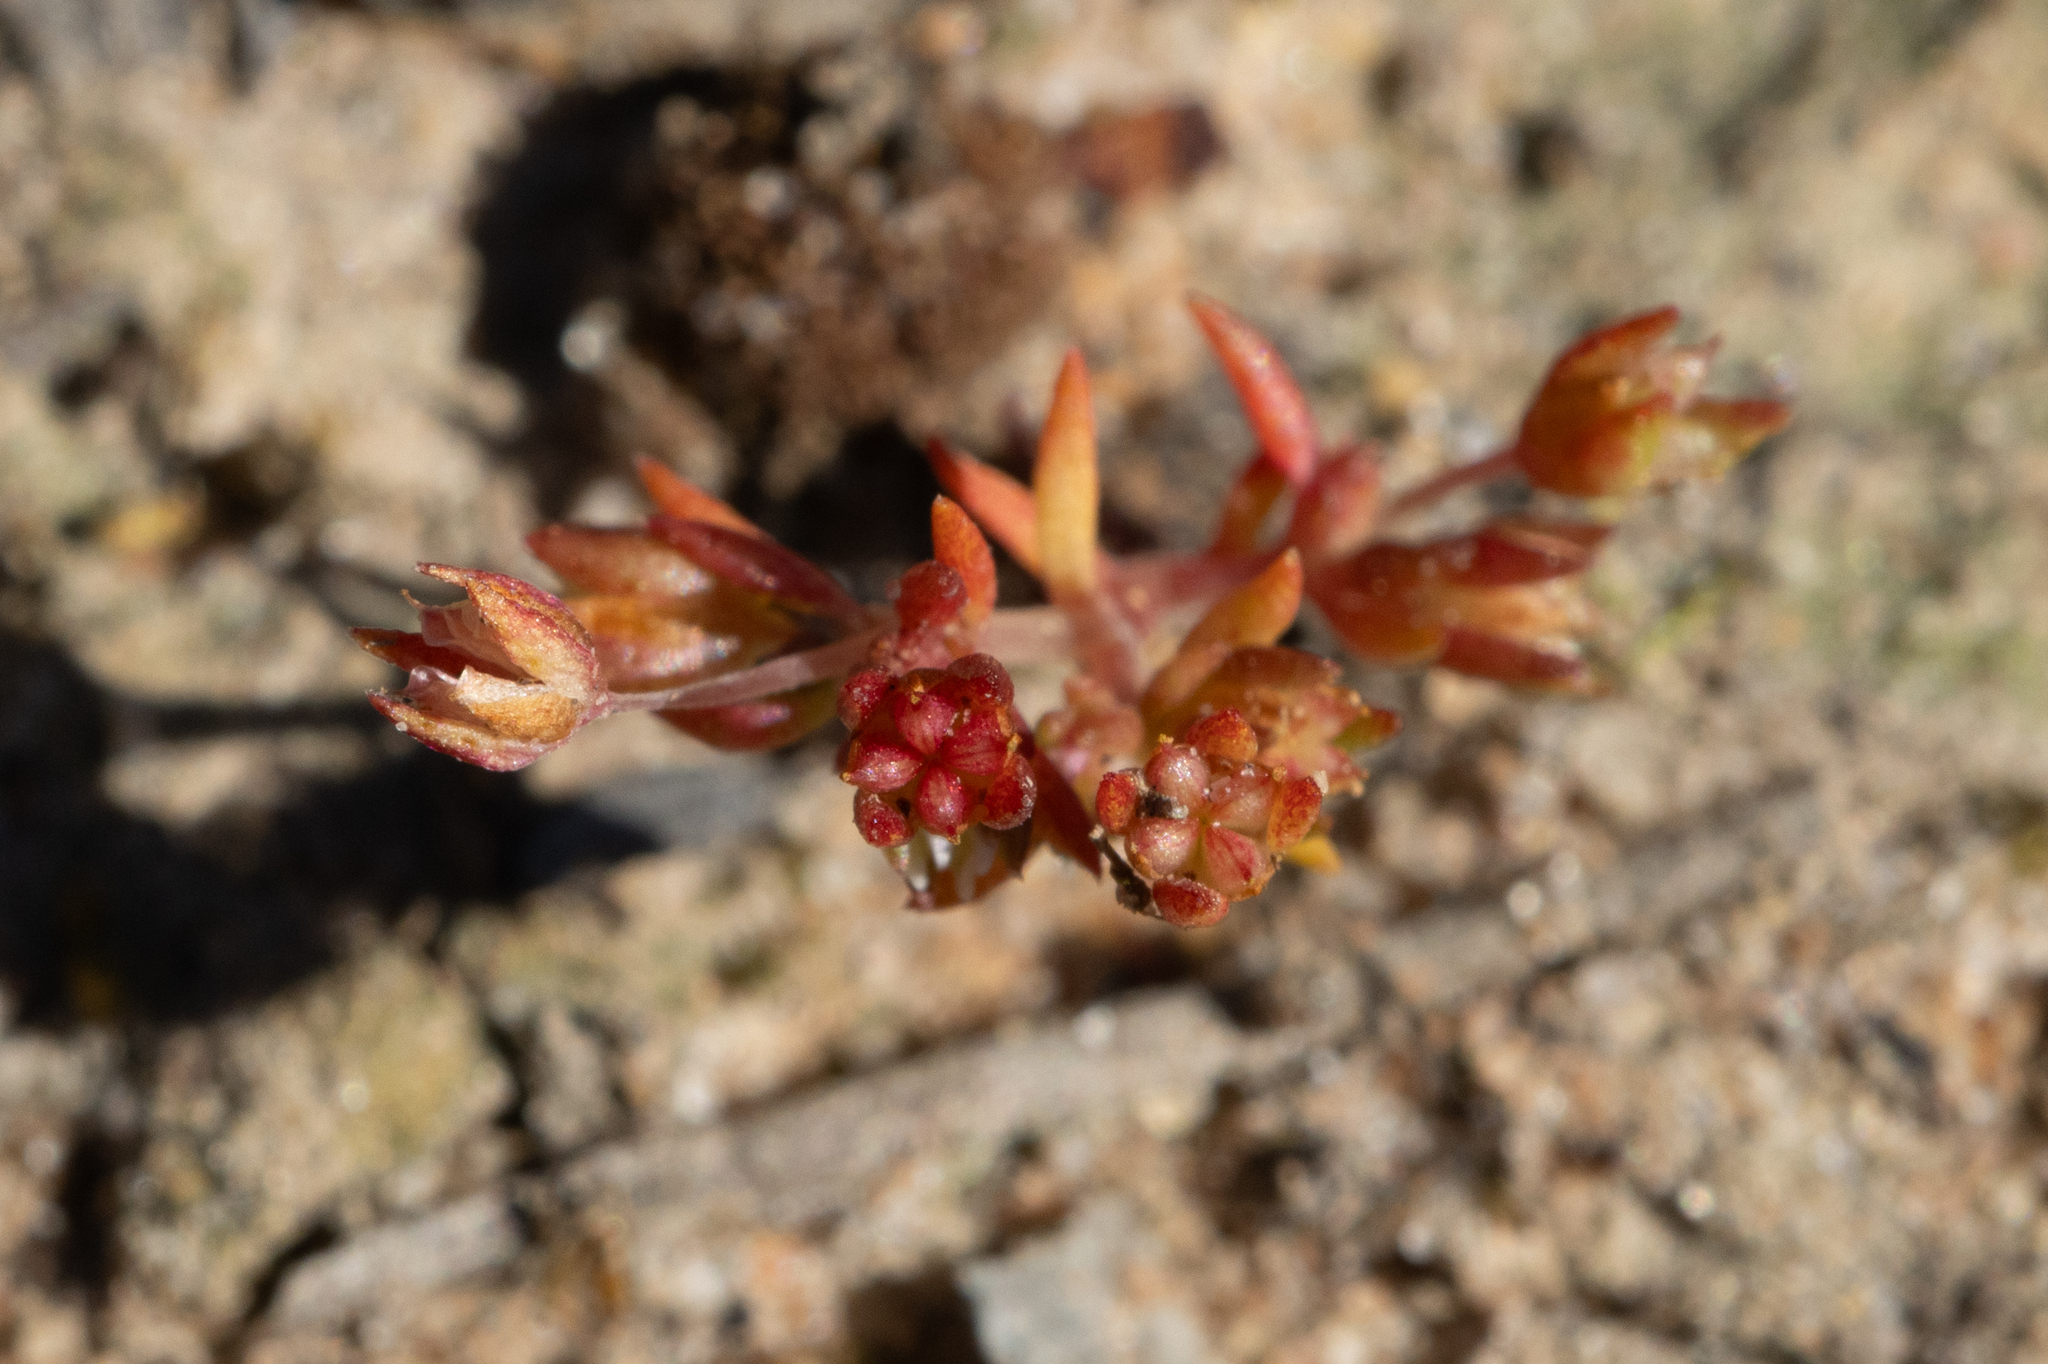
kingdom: Plantae
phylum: Tracheophyta
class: Magnoliopsida
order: Saxifragales
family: Crassulaceae
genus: Crassula
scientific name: Crassula decumbens
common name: Scilly pigmyweed
